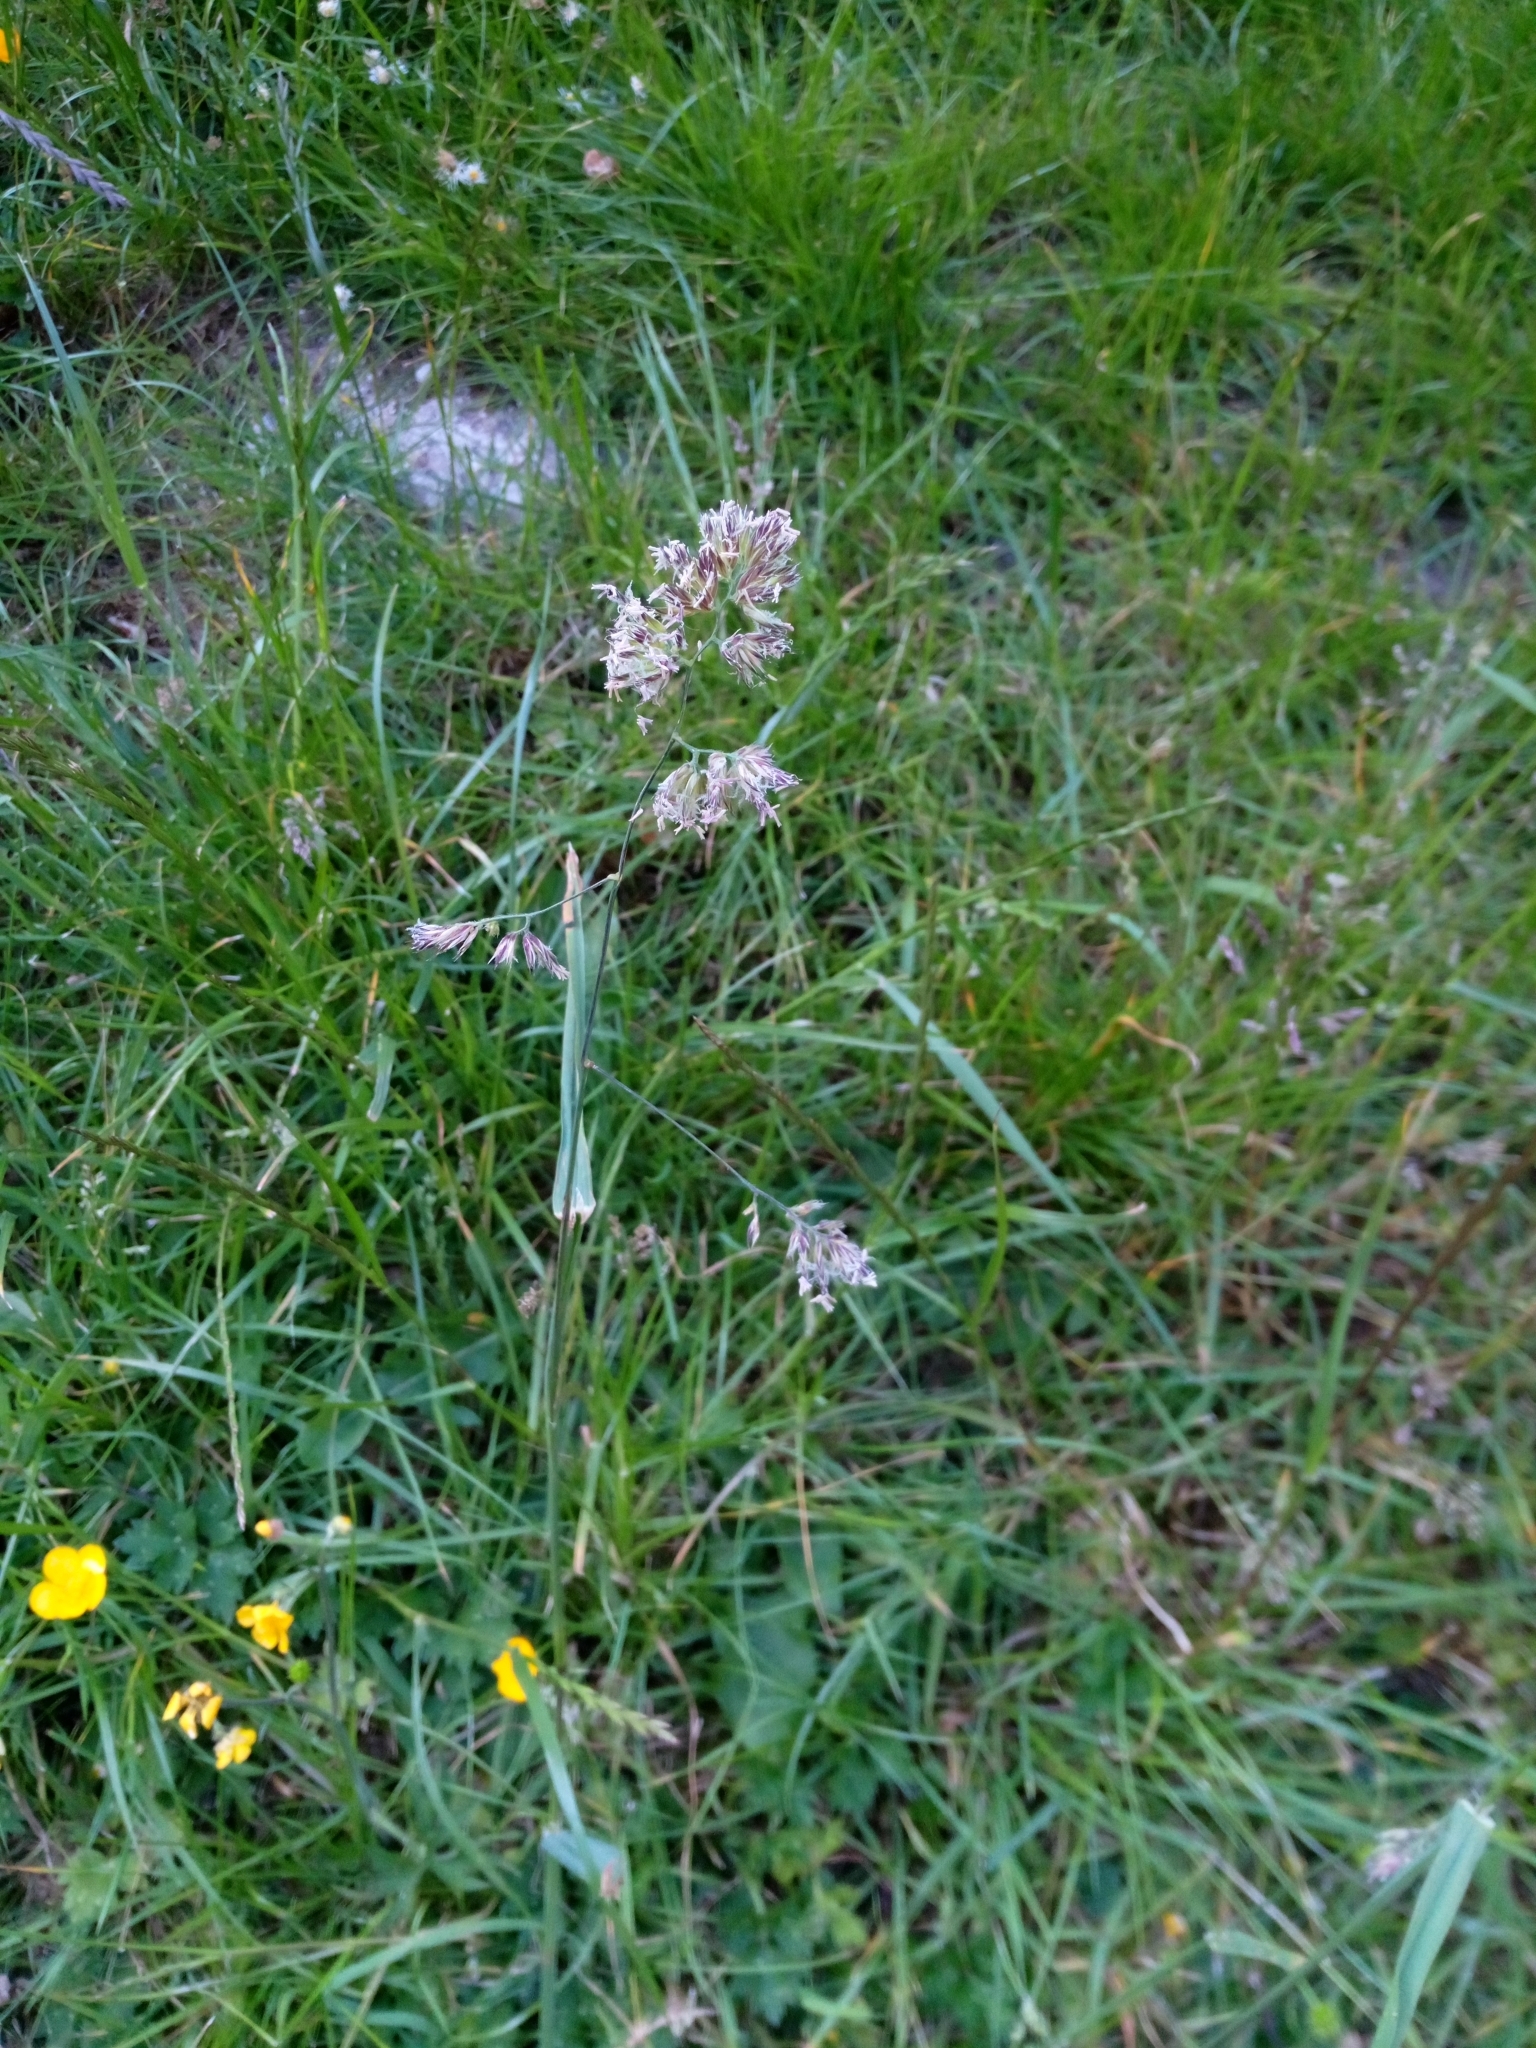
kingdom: Plantae
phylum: Tracheophyta
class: Liliopsida
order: Poales
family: Poaceae
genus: Dactylis
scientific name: Dactylis glomerata
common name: Orchardgrass
